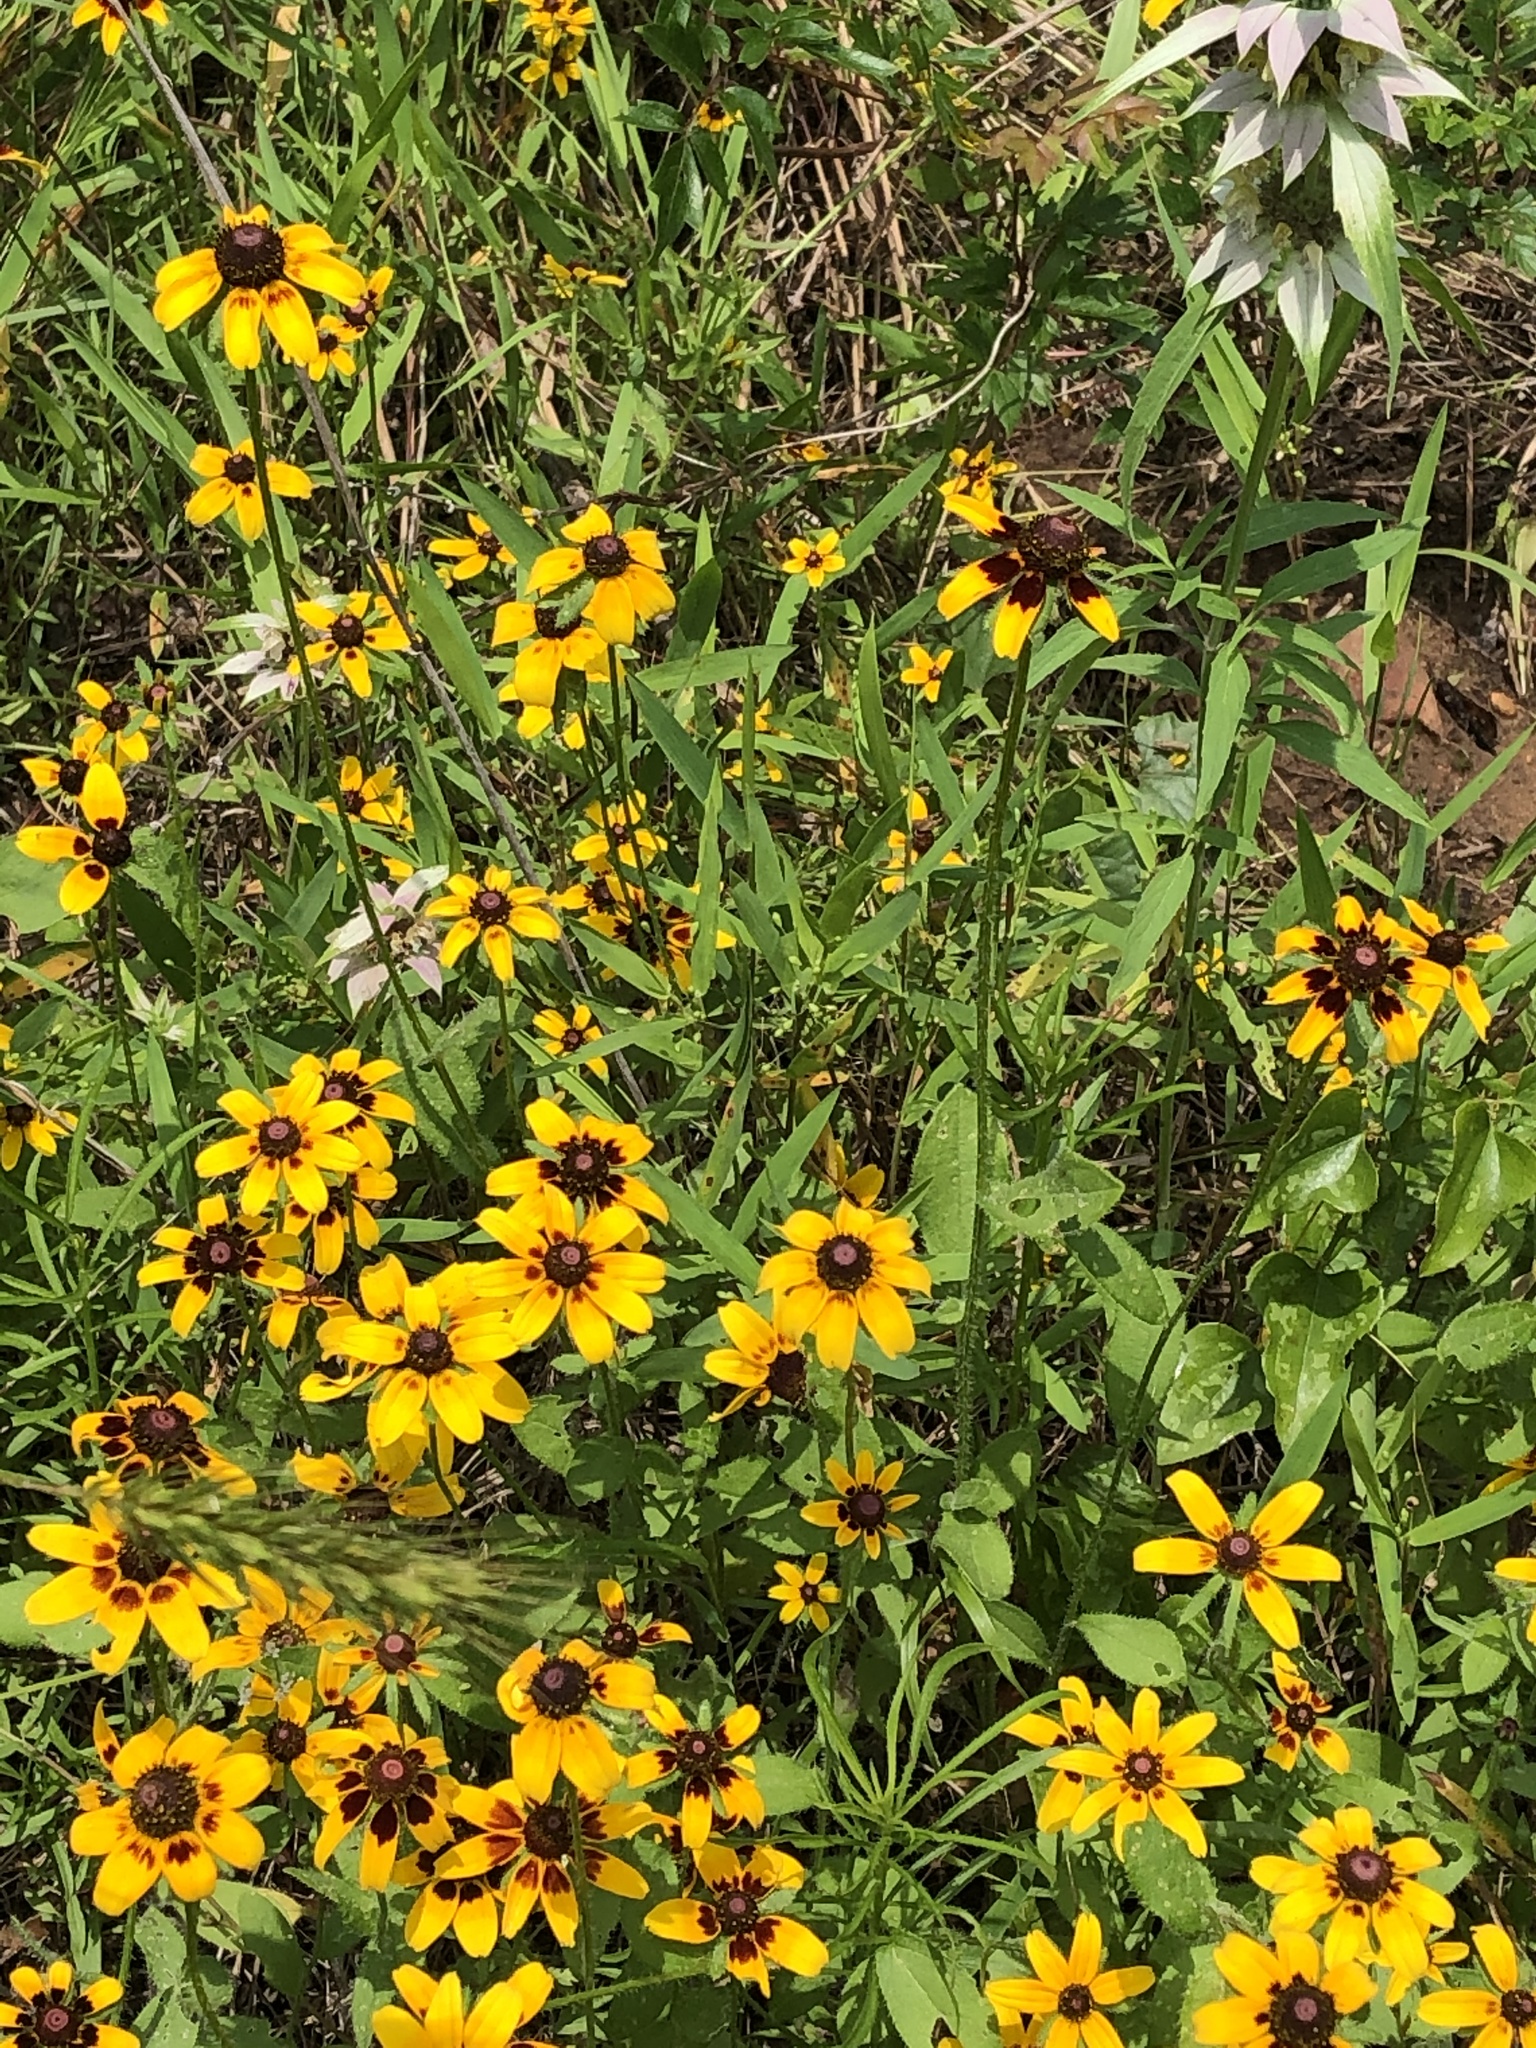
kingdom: Plantae
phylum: Tracheophyta
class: Magnoliopsida
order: Asterales
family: Asteraceae
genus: Rudbeckia
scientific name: Rudbeckia hirta
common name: Black-eyed-susan
